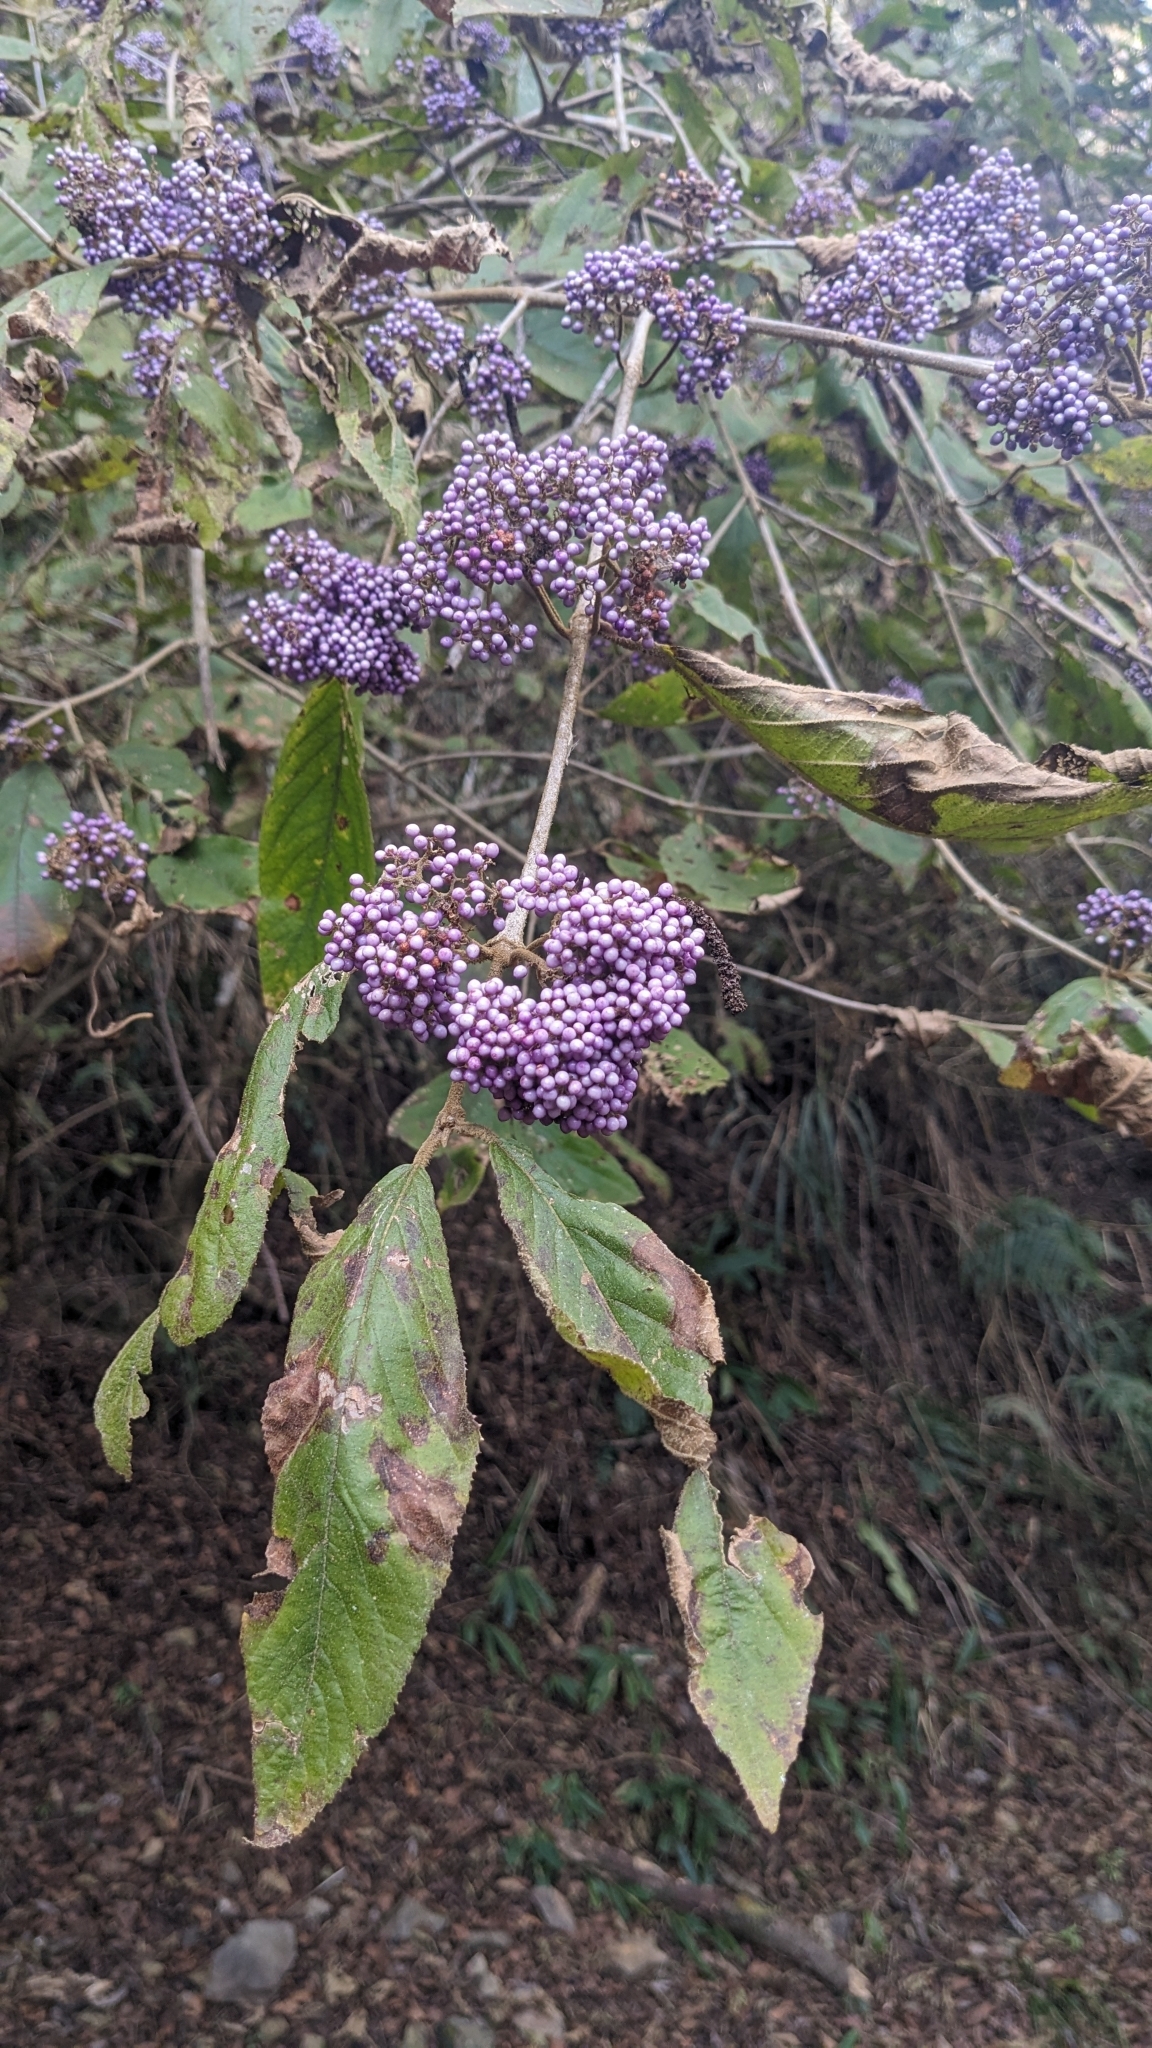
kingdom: Plantae
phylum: Tracheophyta
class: Magnoliopsida
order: Lamiales
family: Lamiaceae
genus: Callicarpa
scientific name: Callicarpa pedunculata
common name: Velvetleaf
